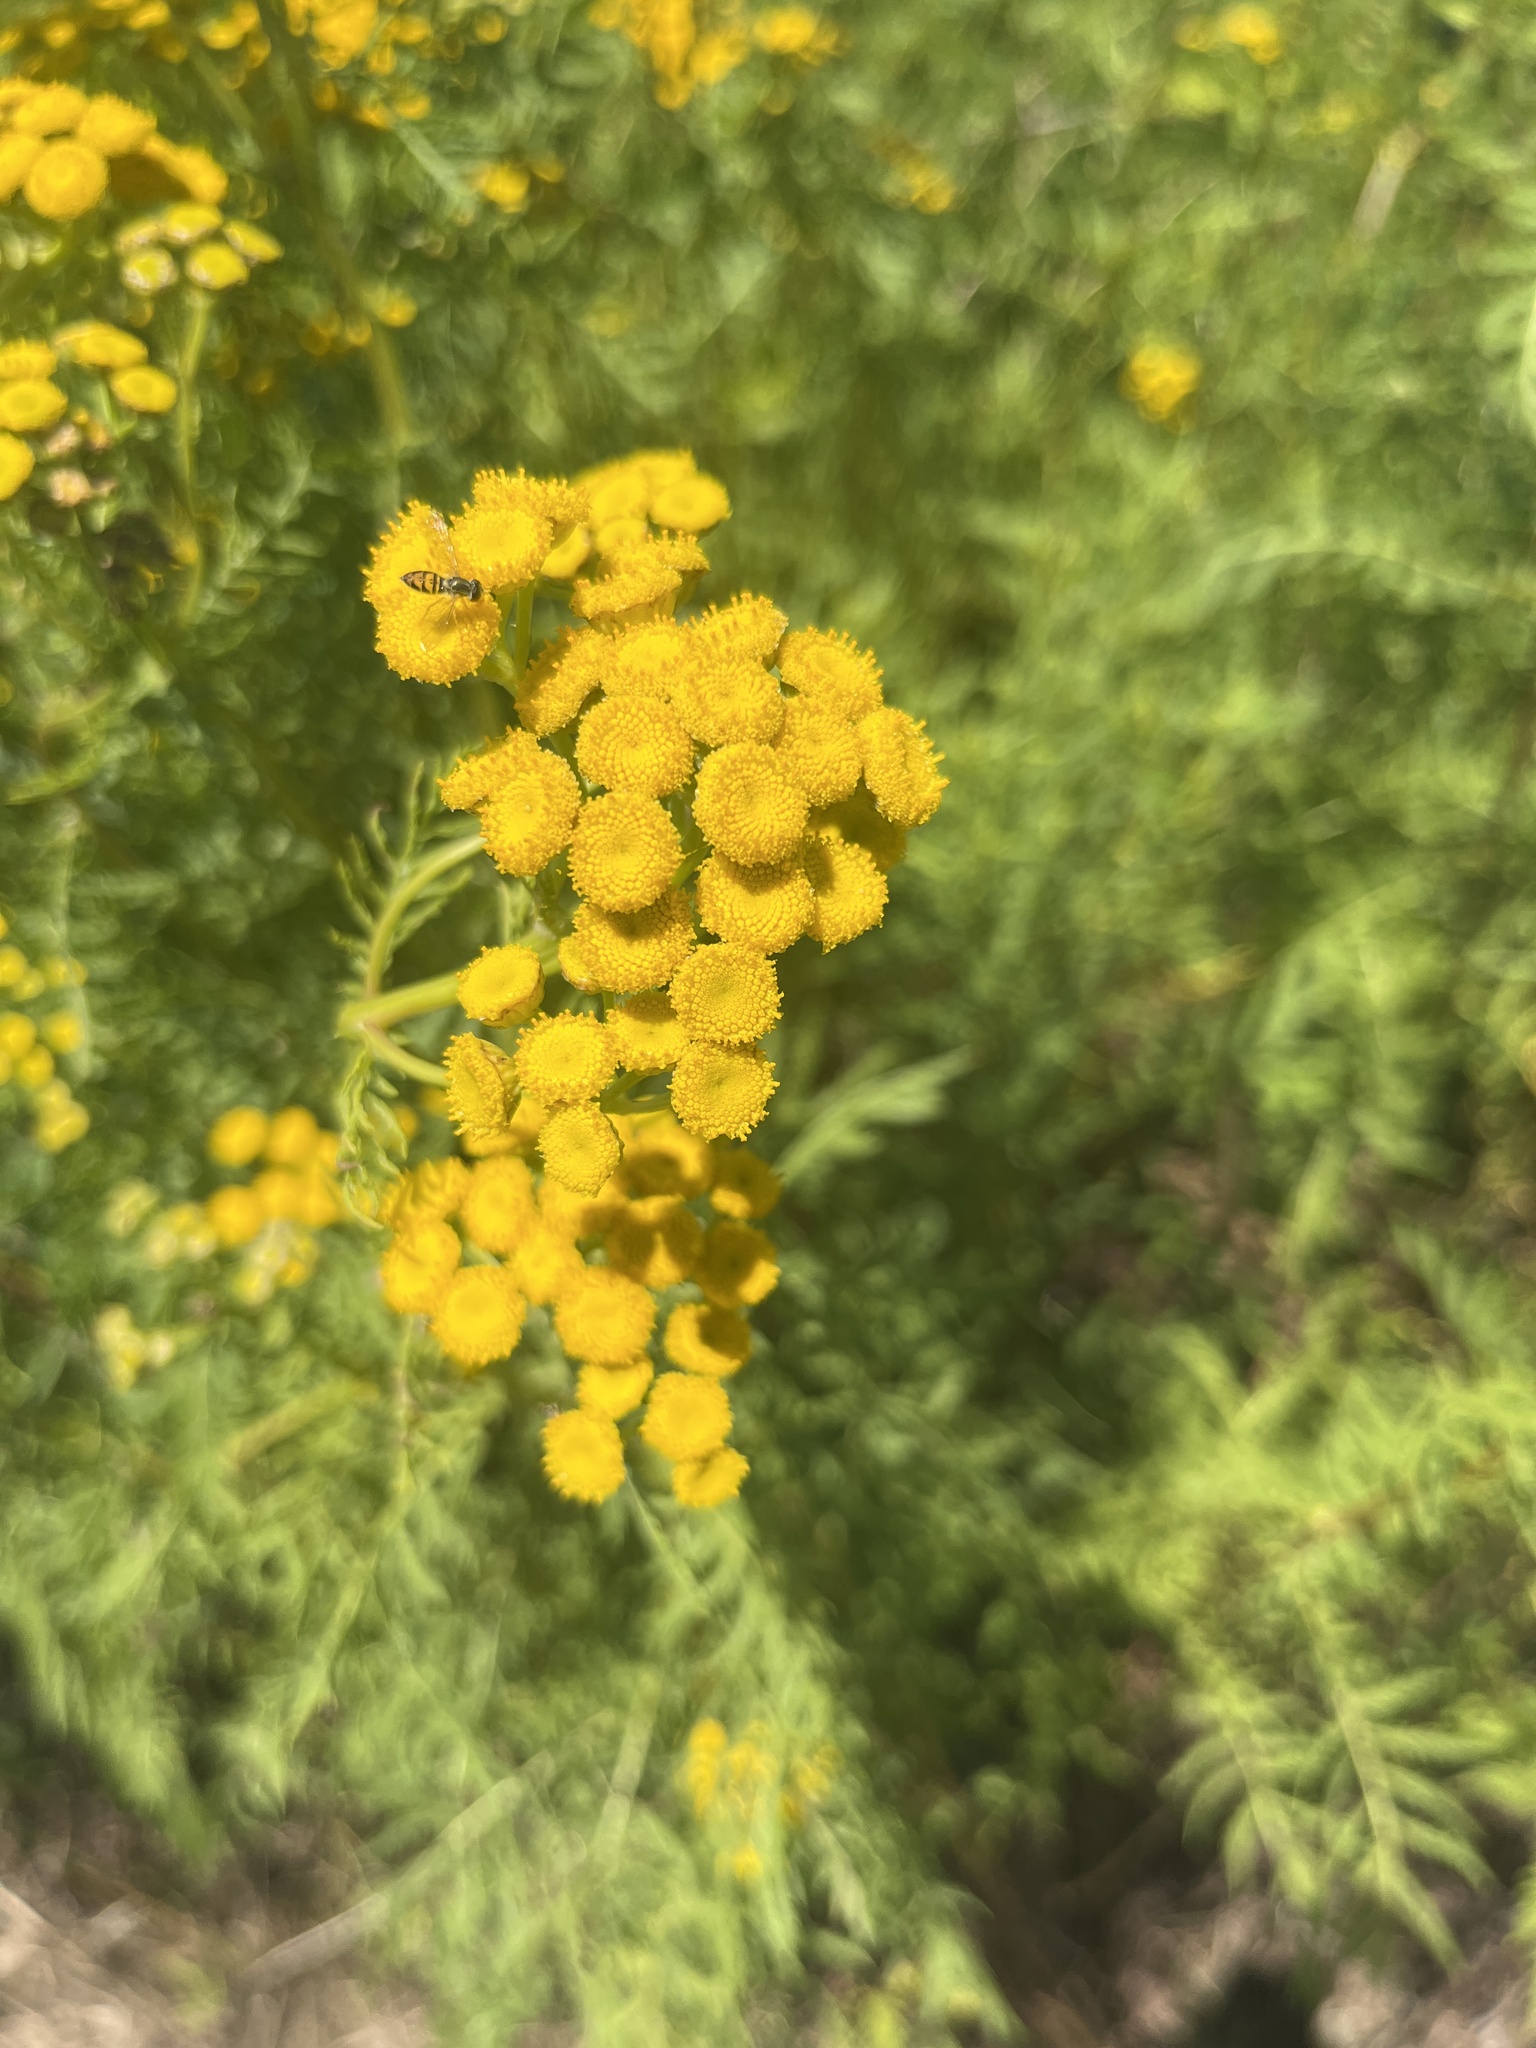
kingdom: Plantae
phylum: Tracheophyta
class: Magnoliopsida
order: Asterales
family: Asteraceae
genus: Tanacetum
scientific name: Tanacetum vulgare
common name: Common tansy
